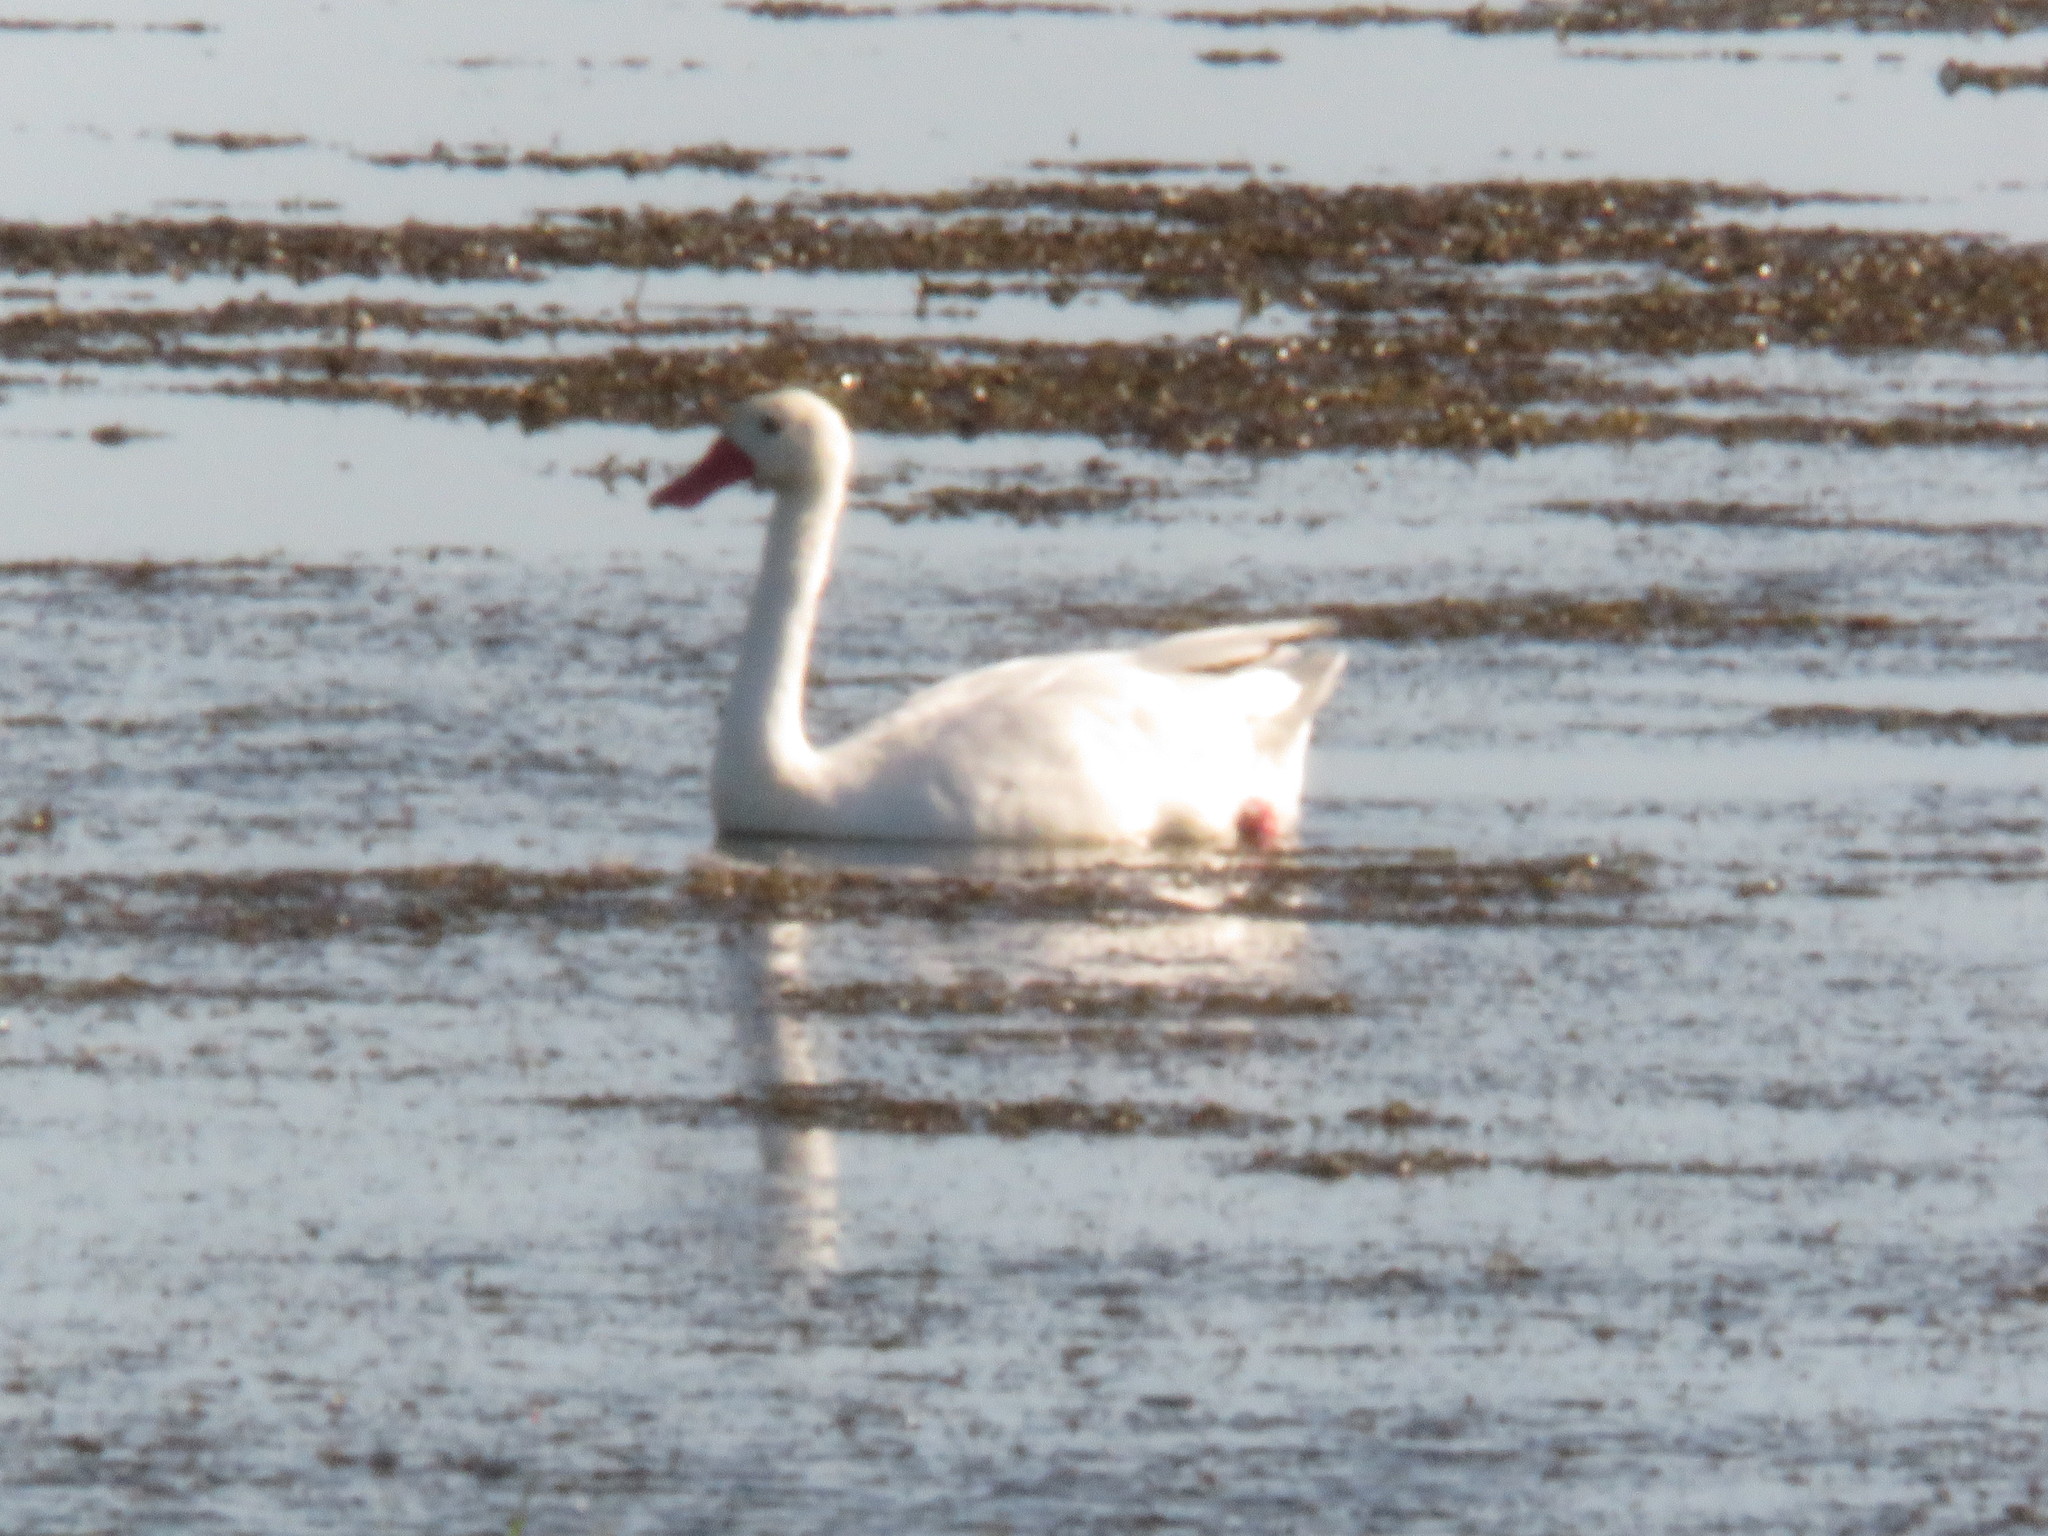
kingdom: Animalia
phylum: Chordata
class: Aves
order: Anseriformes
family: Anatidae
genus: Coscoroba
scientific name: Coscoroba coscoroba
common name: Coscoroba swan
